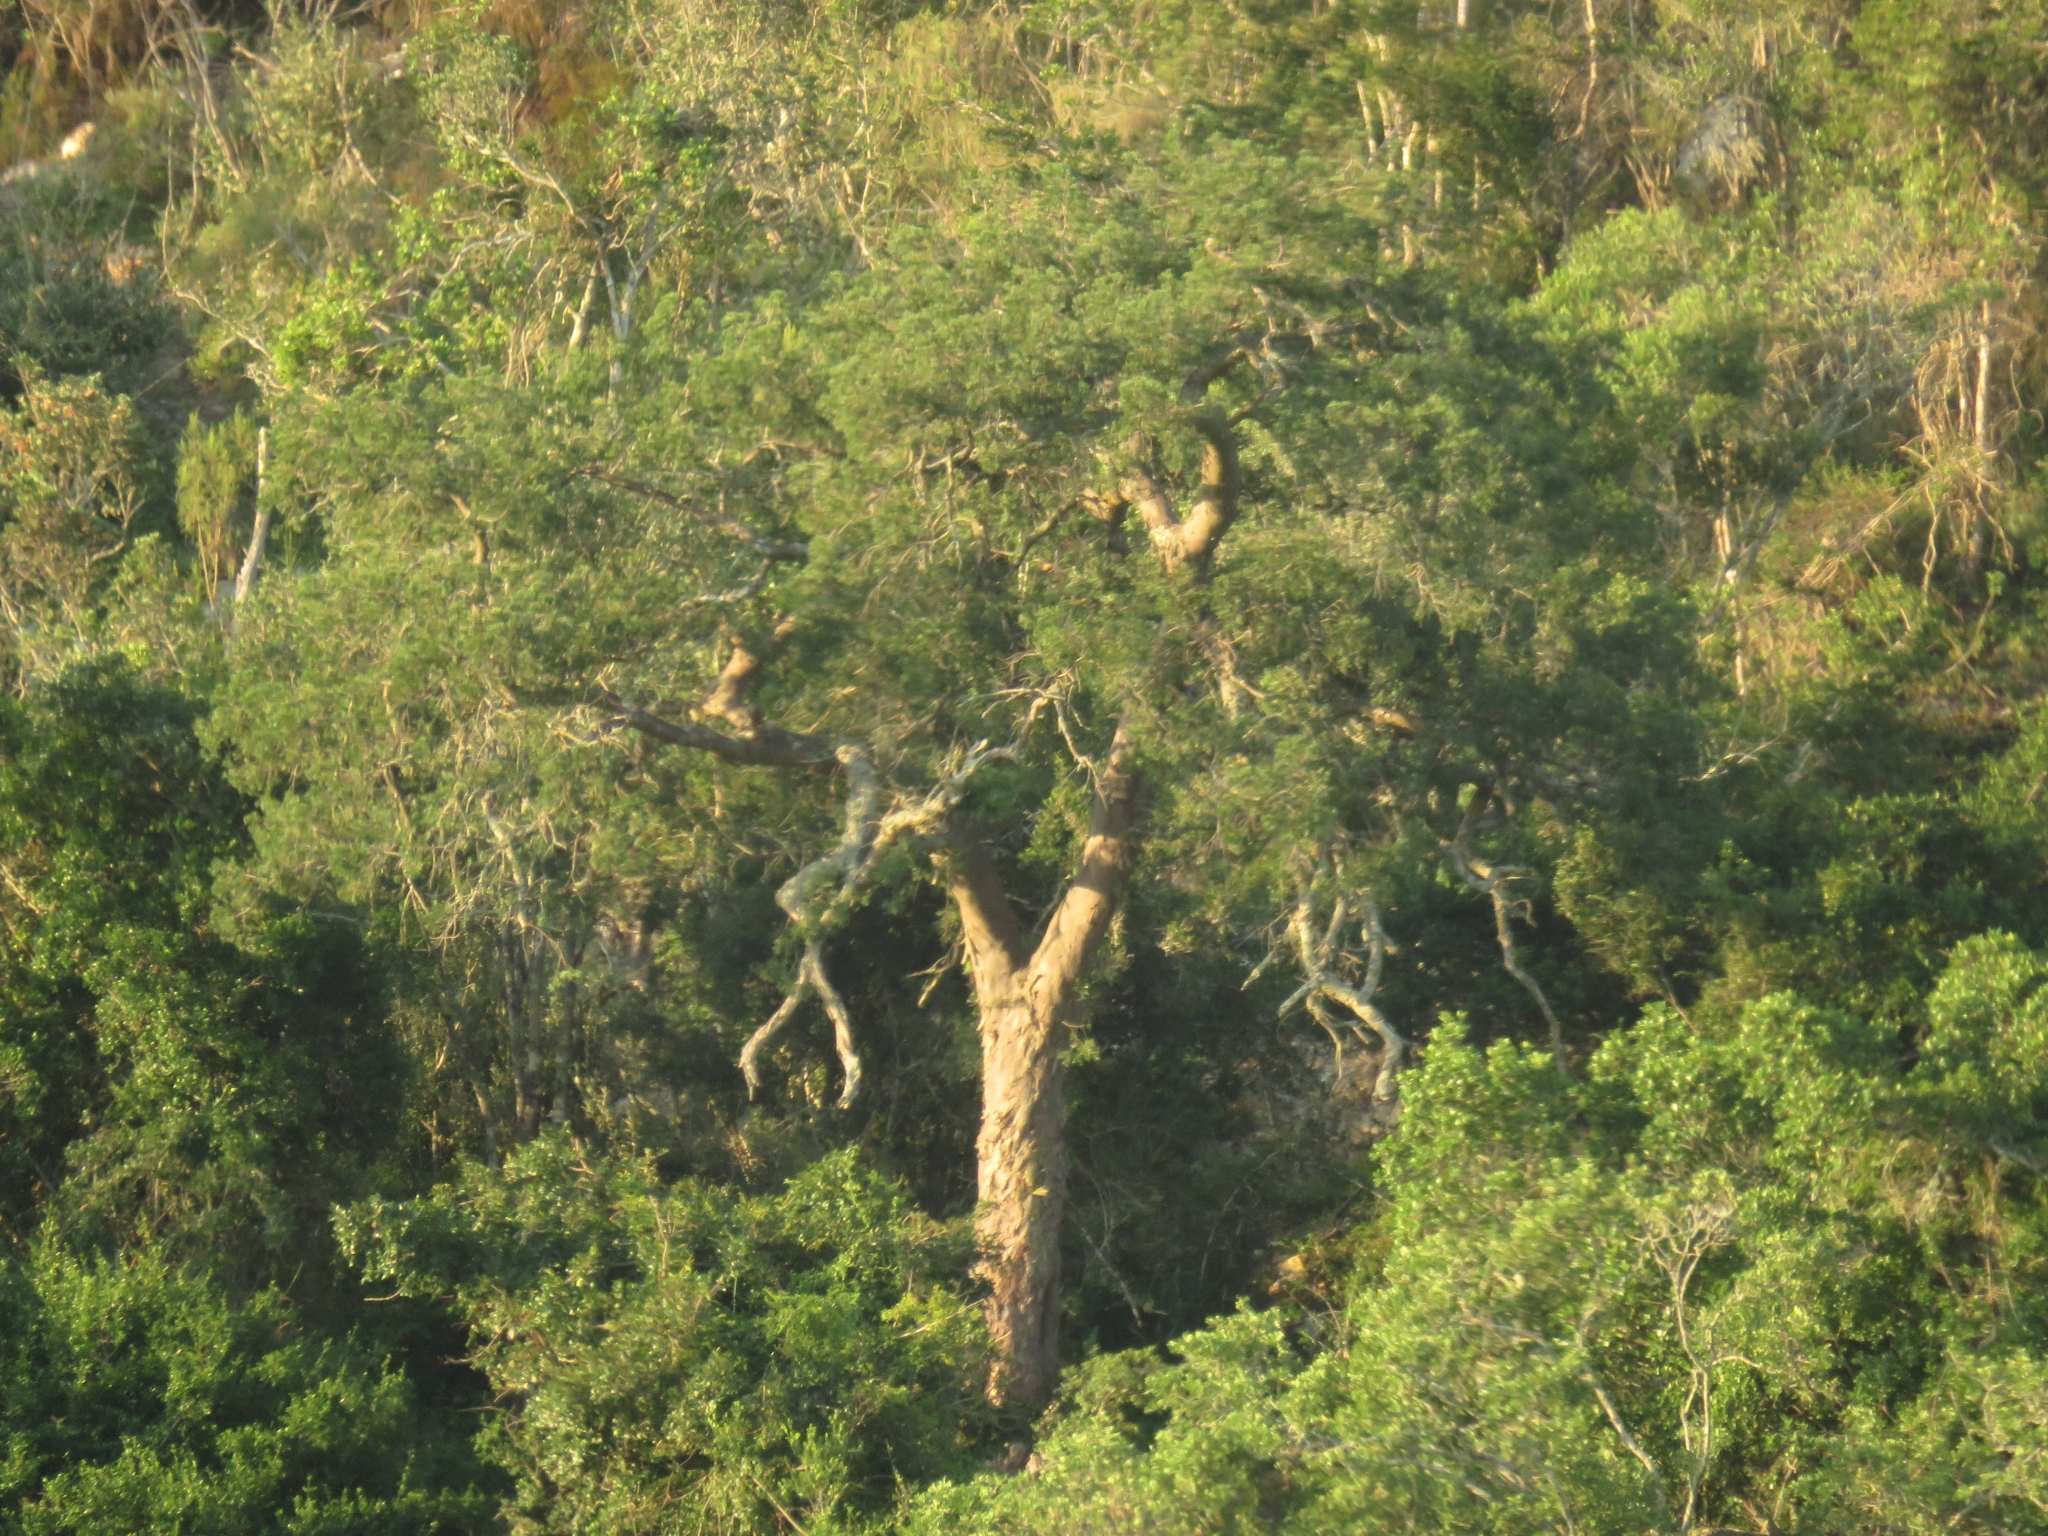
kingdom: Plantae
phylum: Tracheophyta
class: Pinopsida
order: Pinales
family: Podocarpaceae
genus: Afrocarpus
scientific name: Afrocarpus falcatus
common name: Bastard yellowwood
